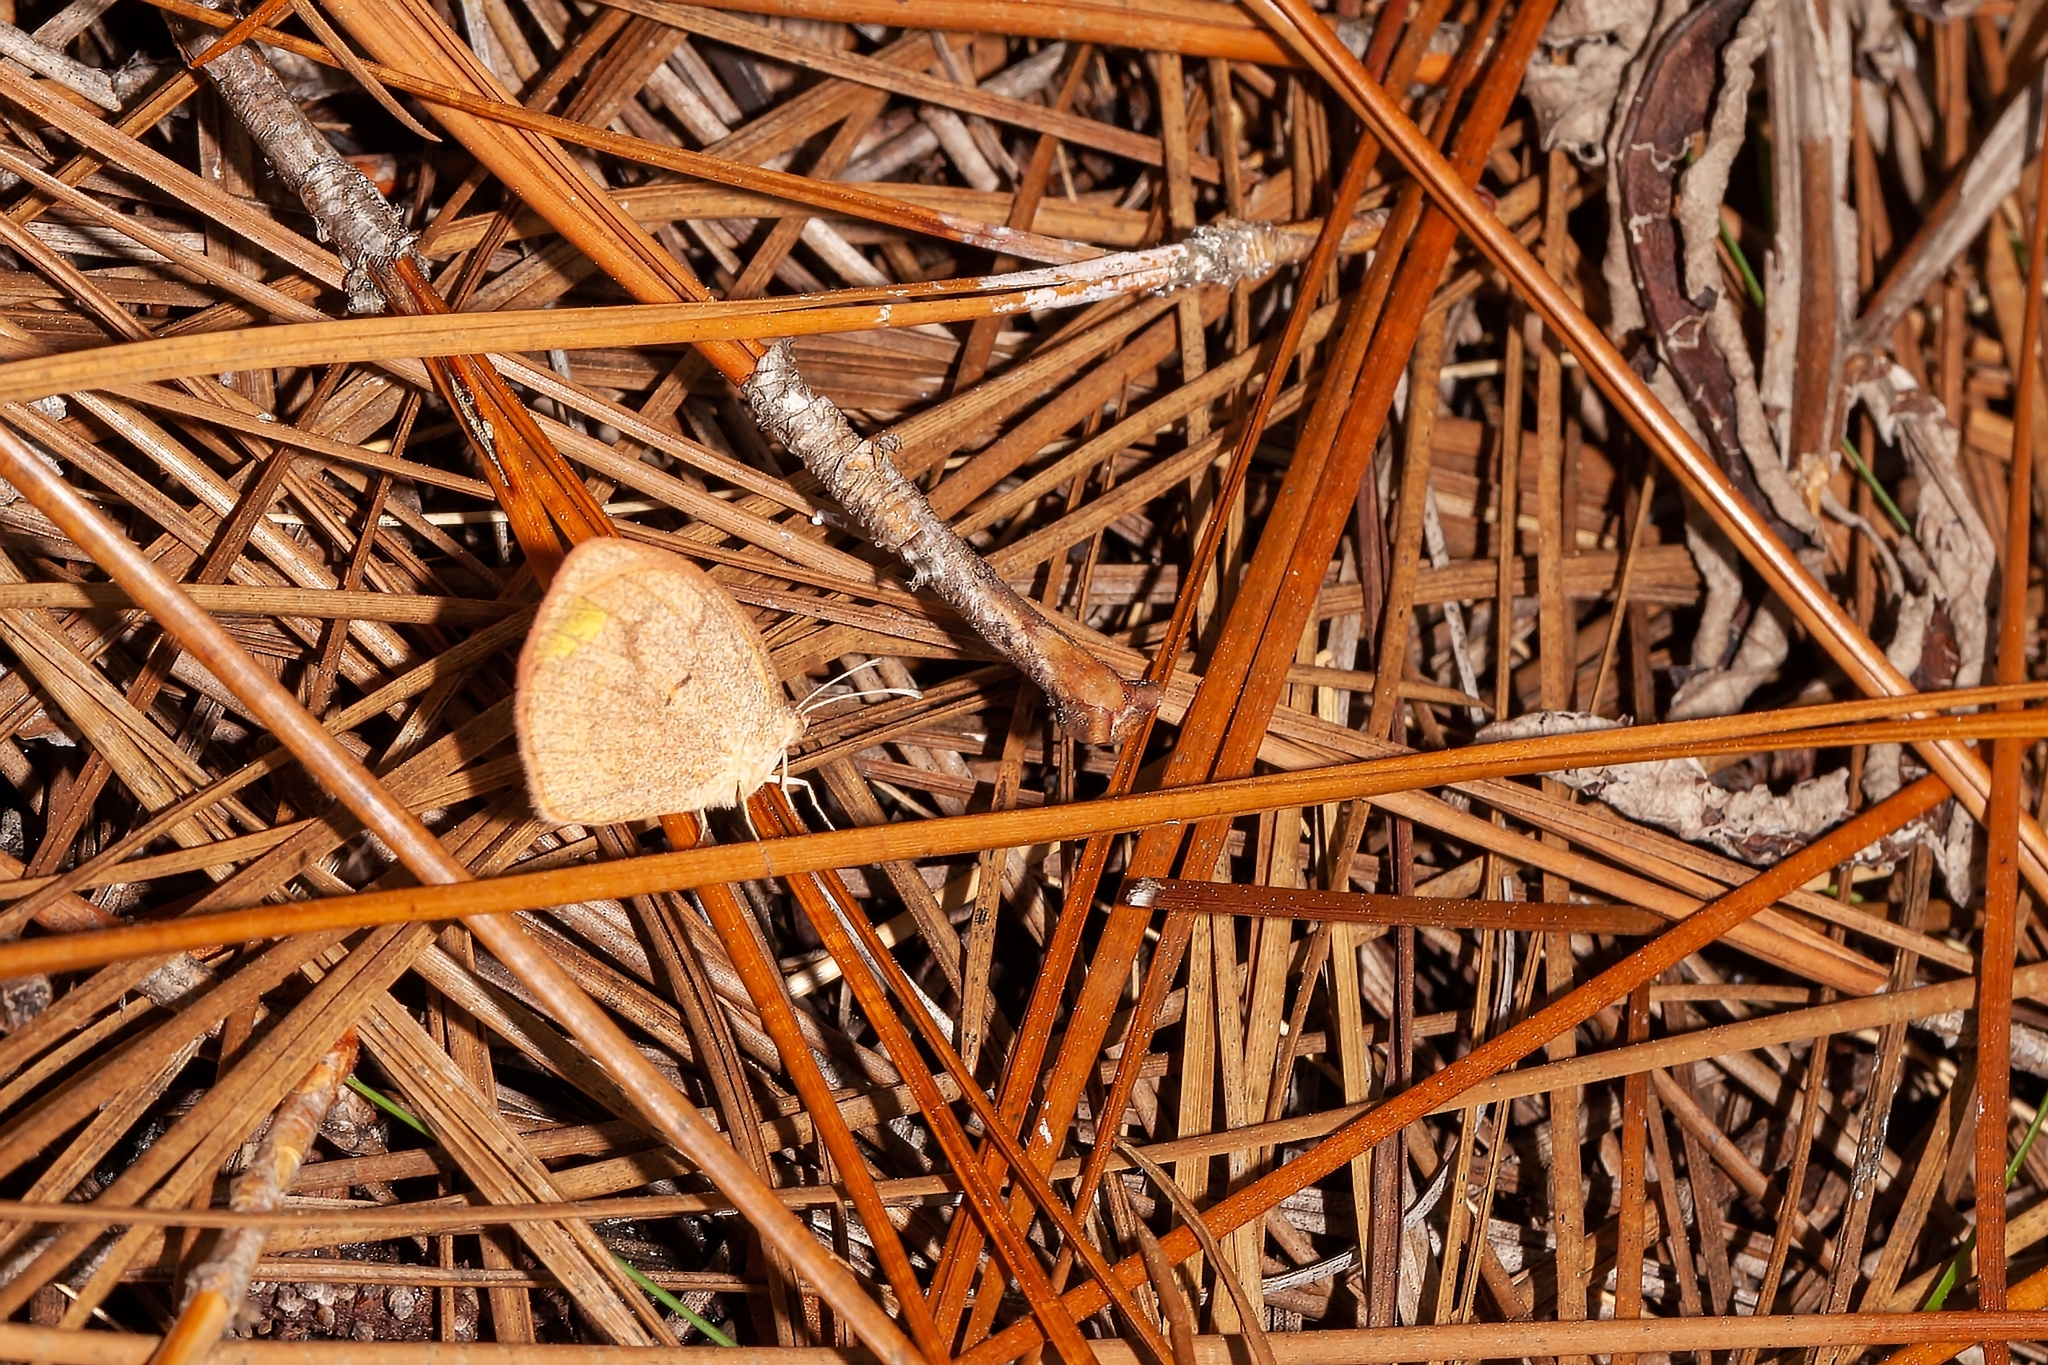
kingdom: Animalia
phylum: Arthropoda
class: Insecta
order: Lepidoptera
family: Pieridae
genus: Eurema
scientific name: Eurema daira
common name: Barred sulphur
